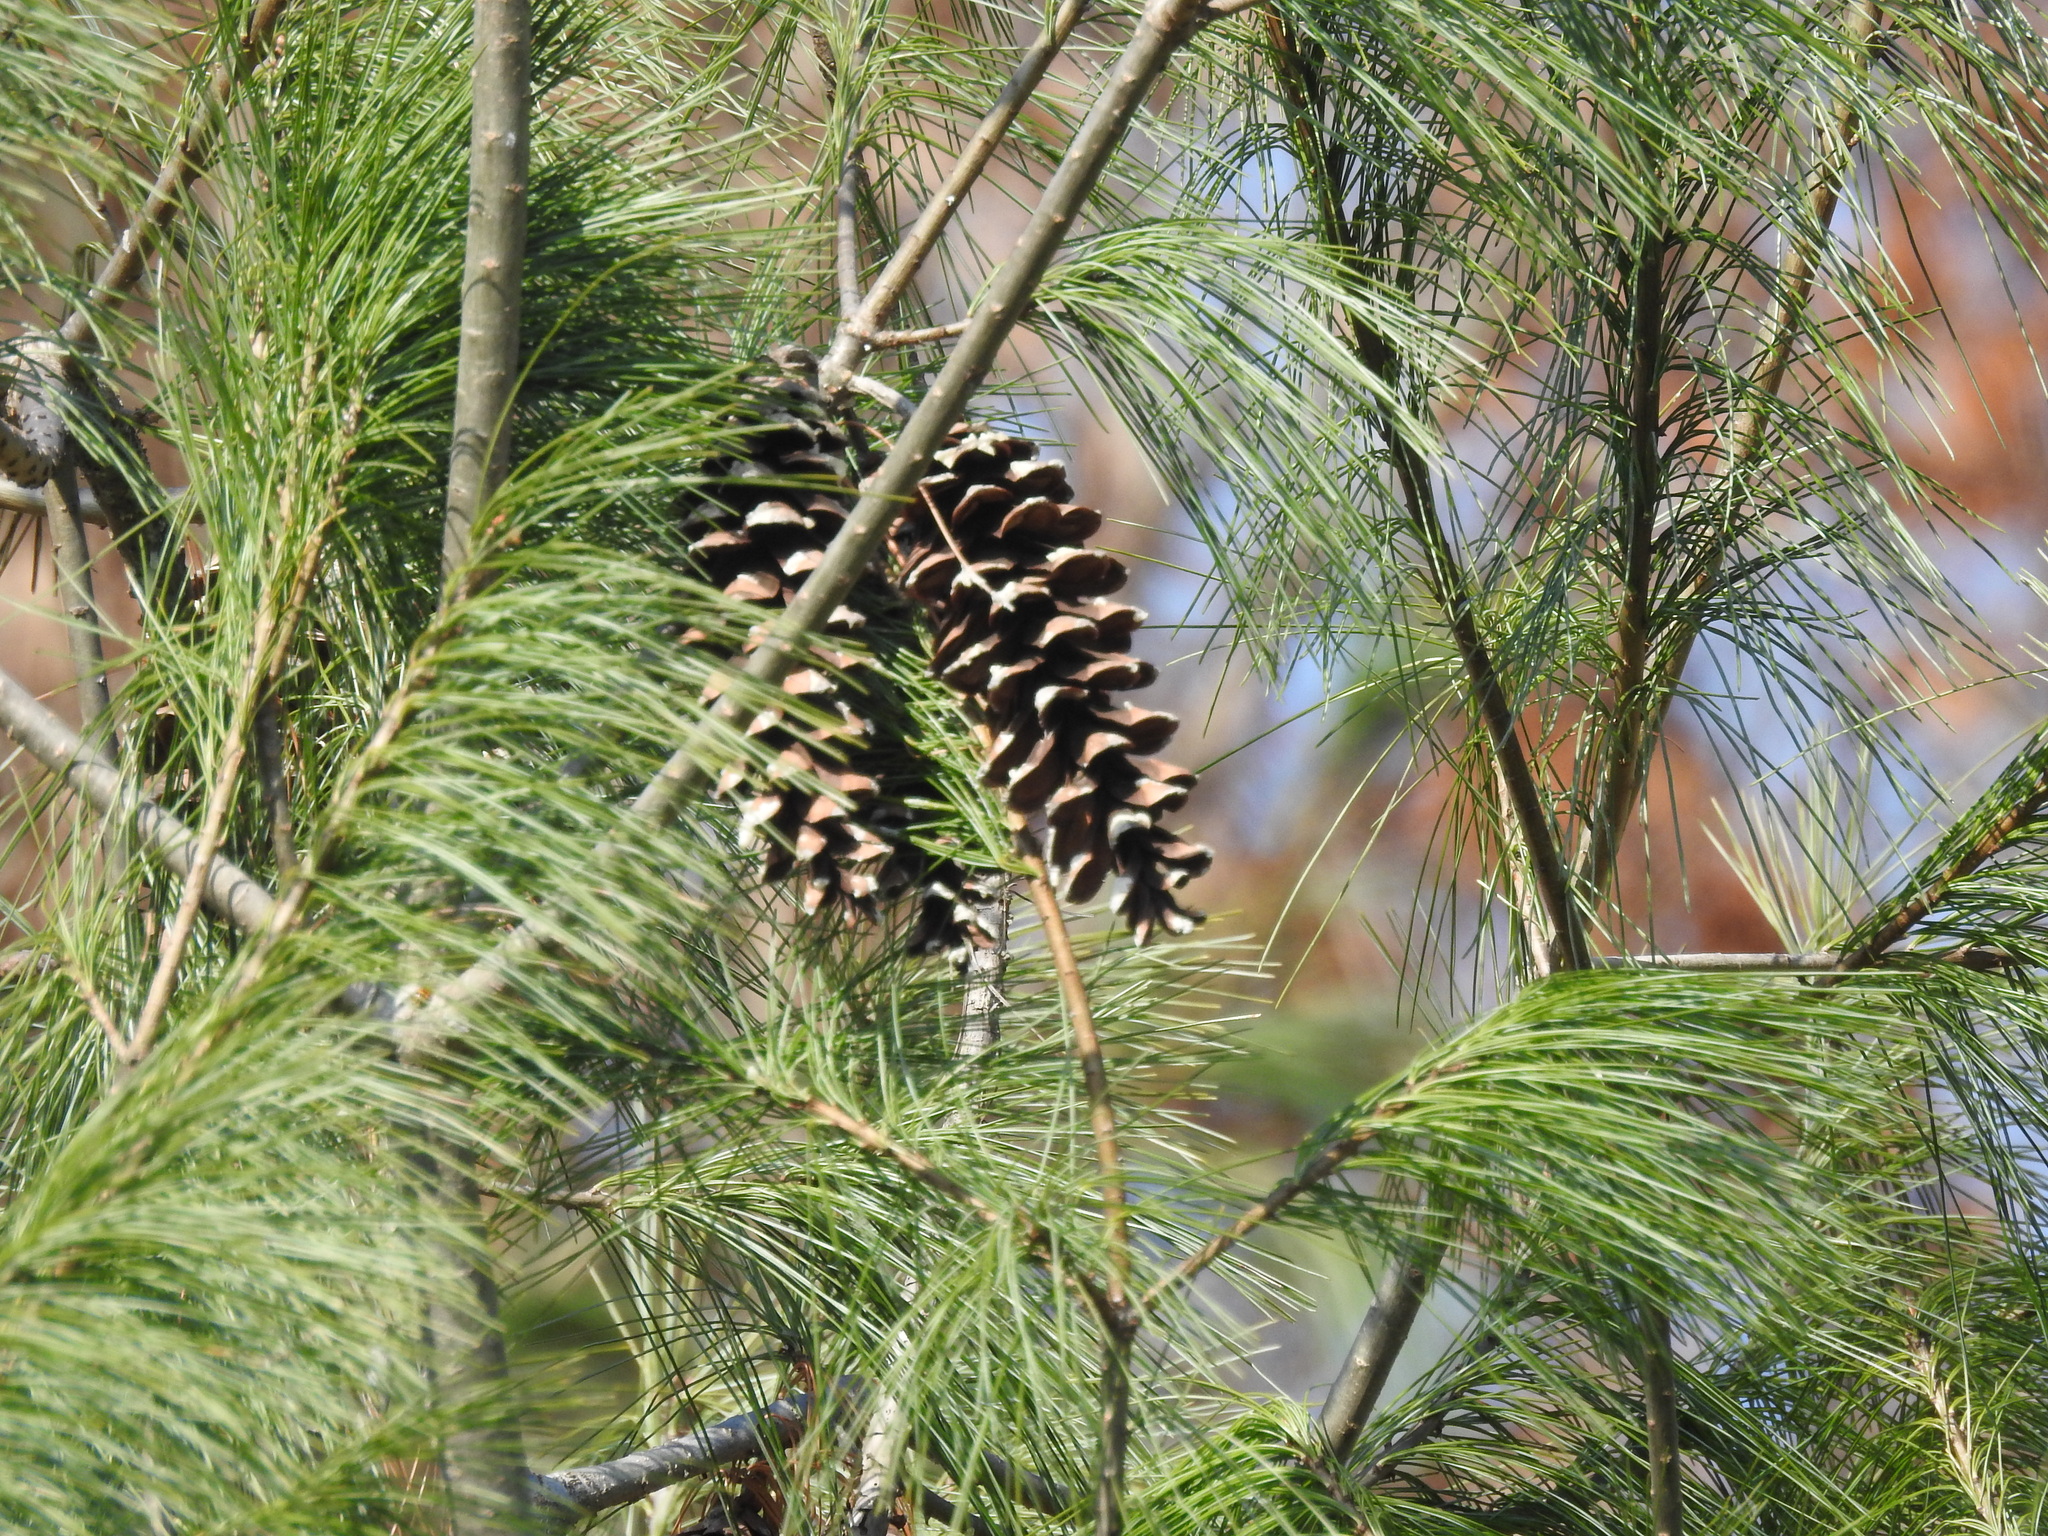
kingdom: Plantae
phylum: Tracheophyta
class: Pinopsida
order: Pinales
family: Pinaceae
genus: Pinus
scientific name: Pinus strobus
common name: Weymouth pine
